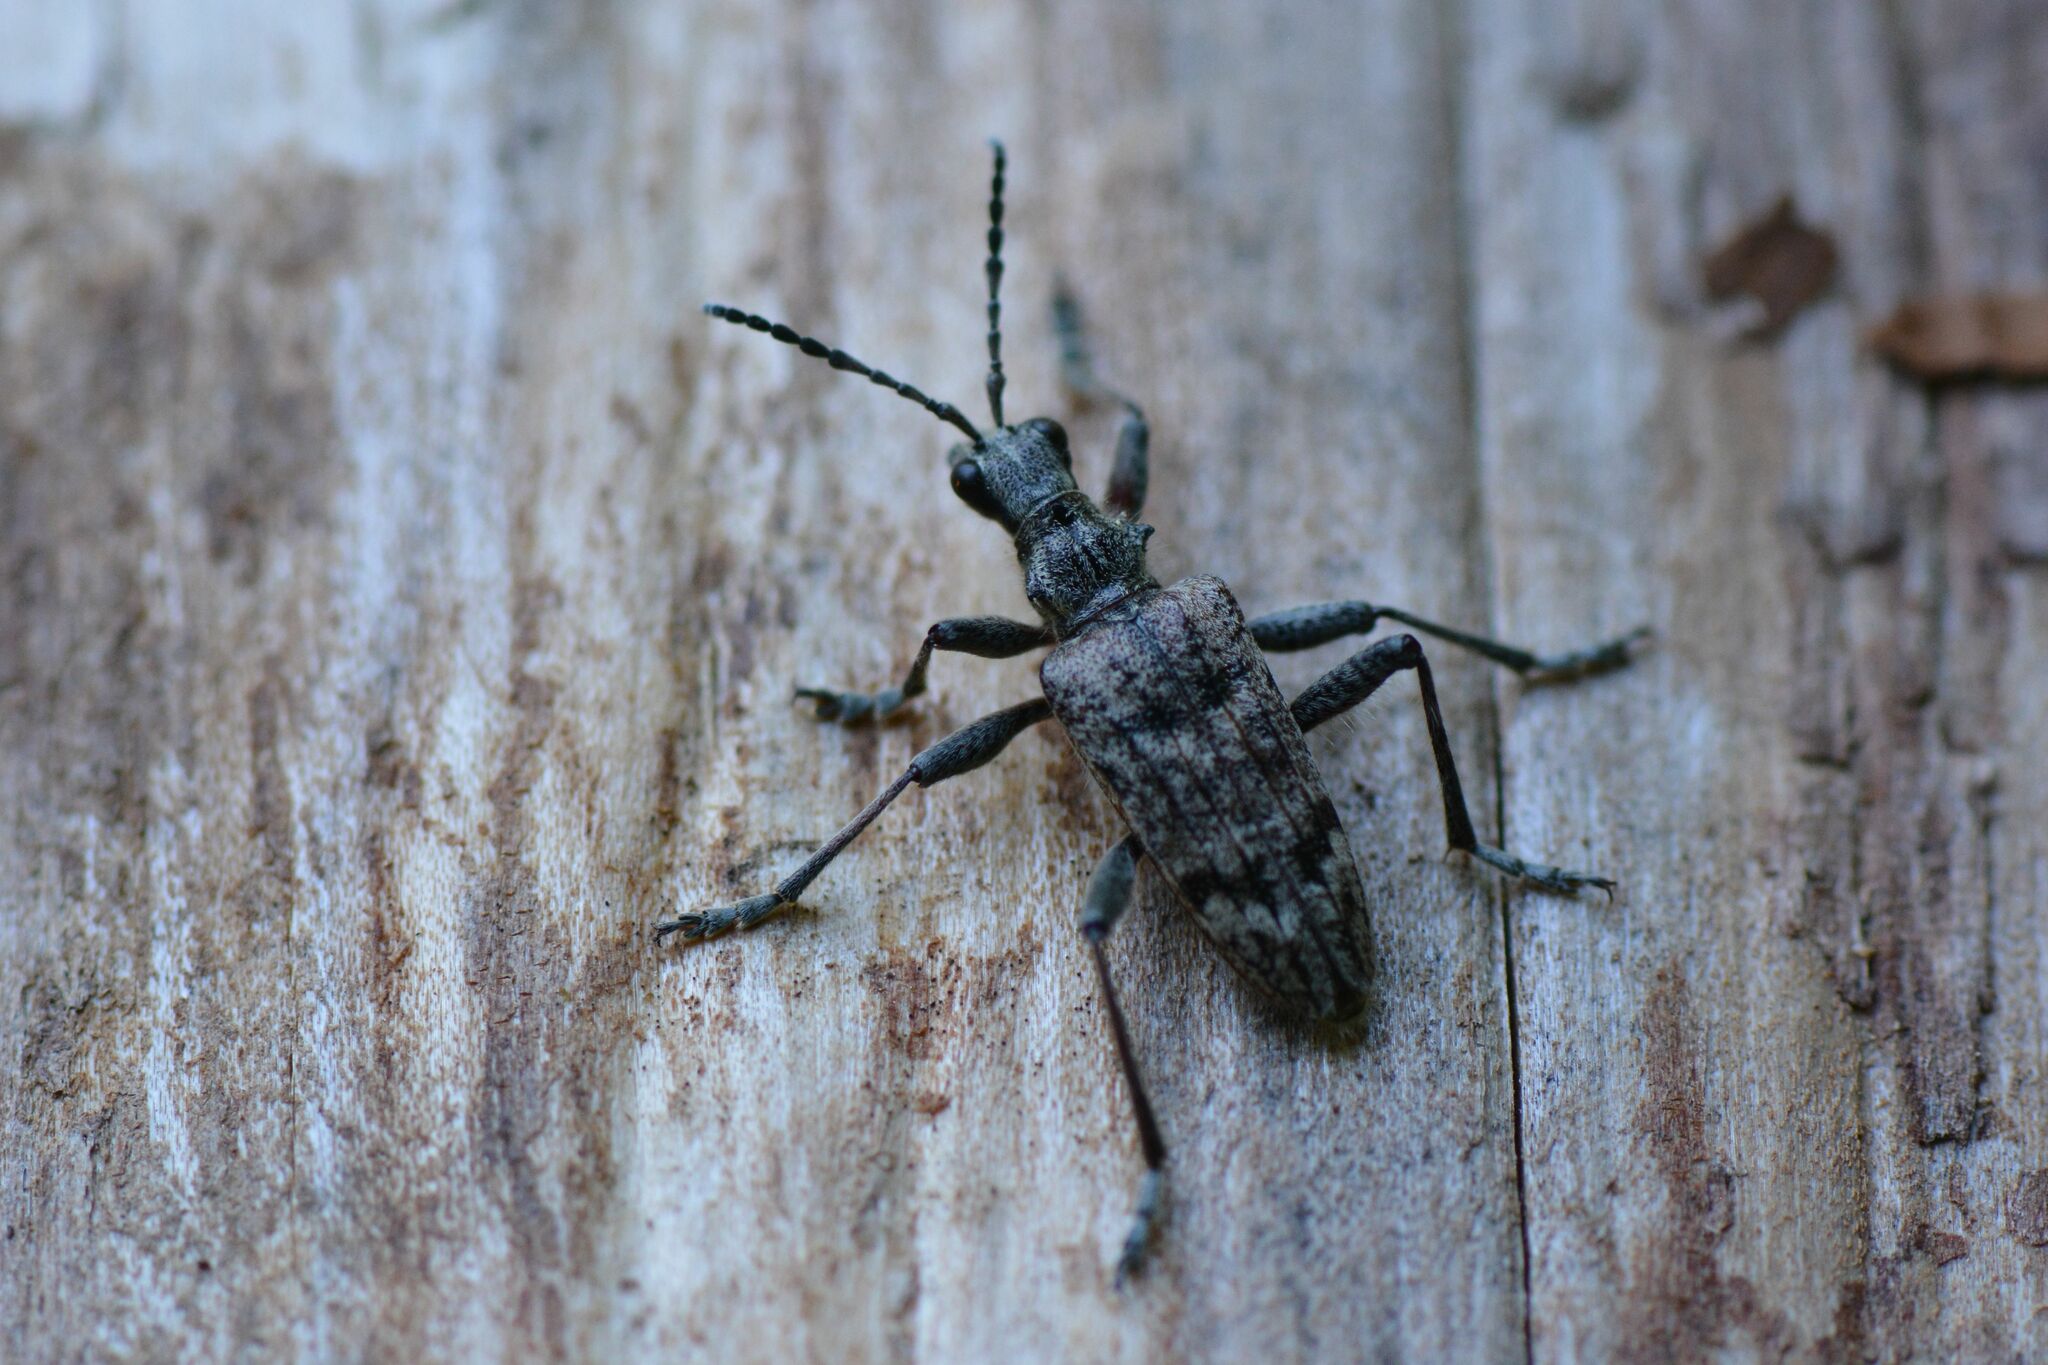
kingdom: Animalia
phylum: Arthropoda
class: Insecta
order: Coleoptera
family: Cerambycidae
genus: Rhagium
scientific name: Rhagium inquisitor
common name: Ribbed pine borer
